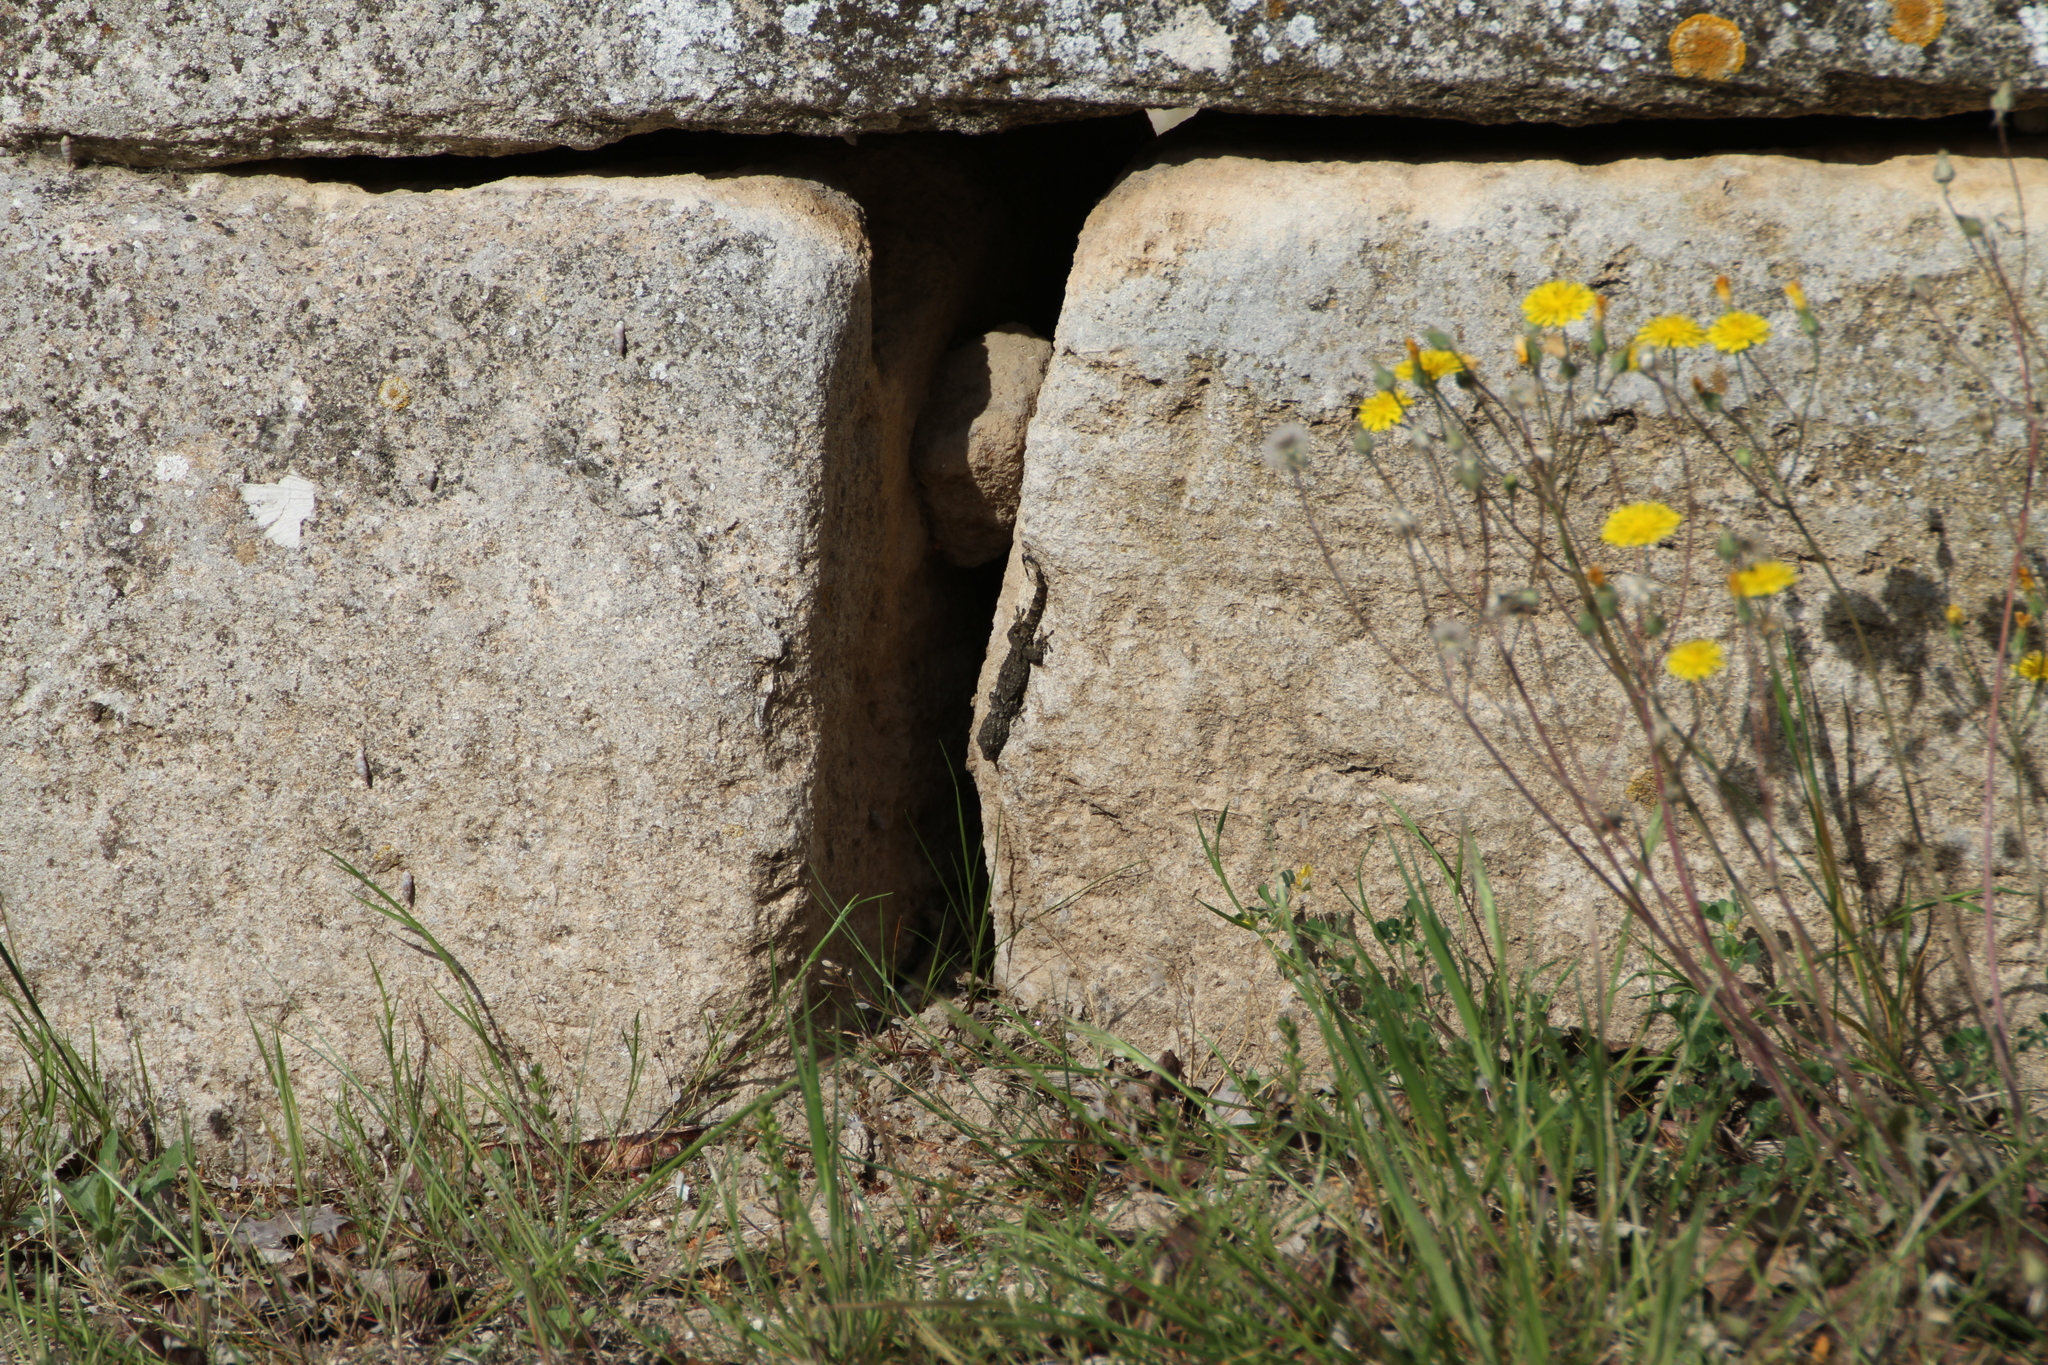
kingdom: Animalia
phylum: Chordata
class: Squamata
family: Phyllodactylidae
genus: Tarentola
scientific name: Tarentola mauritanica
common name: Moorish gecko
